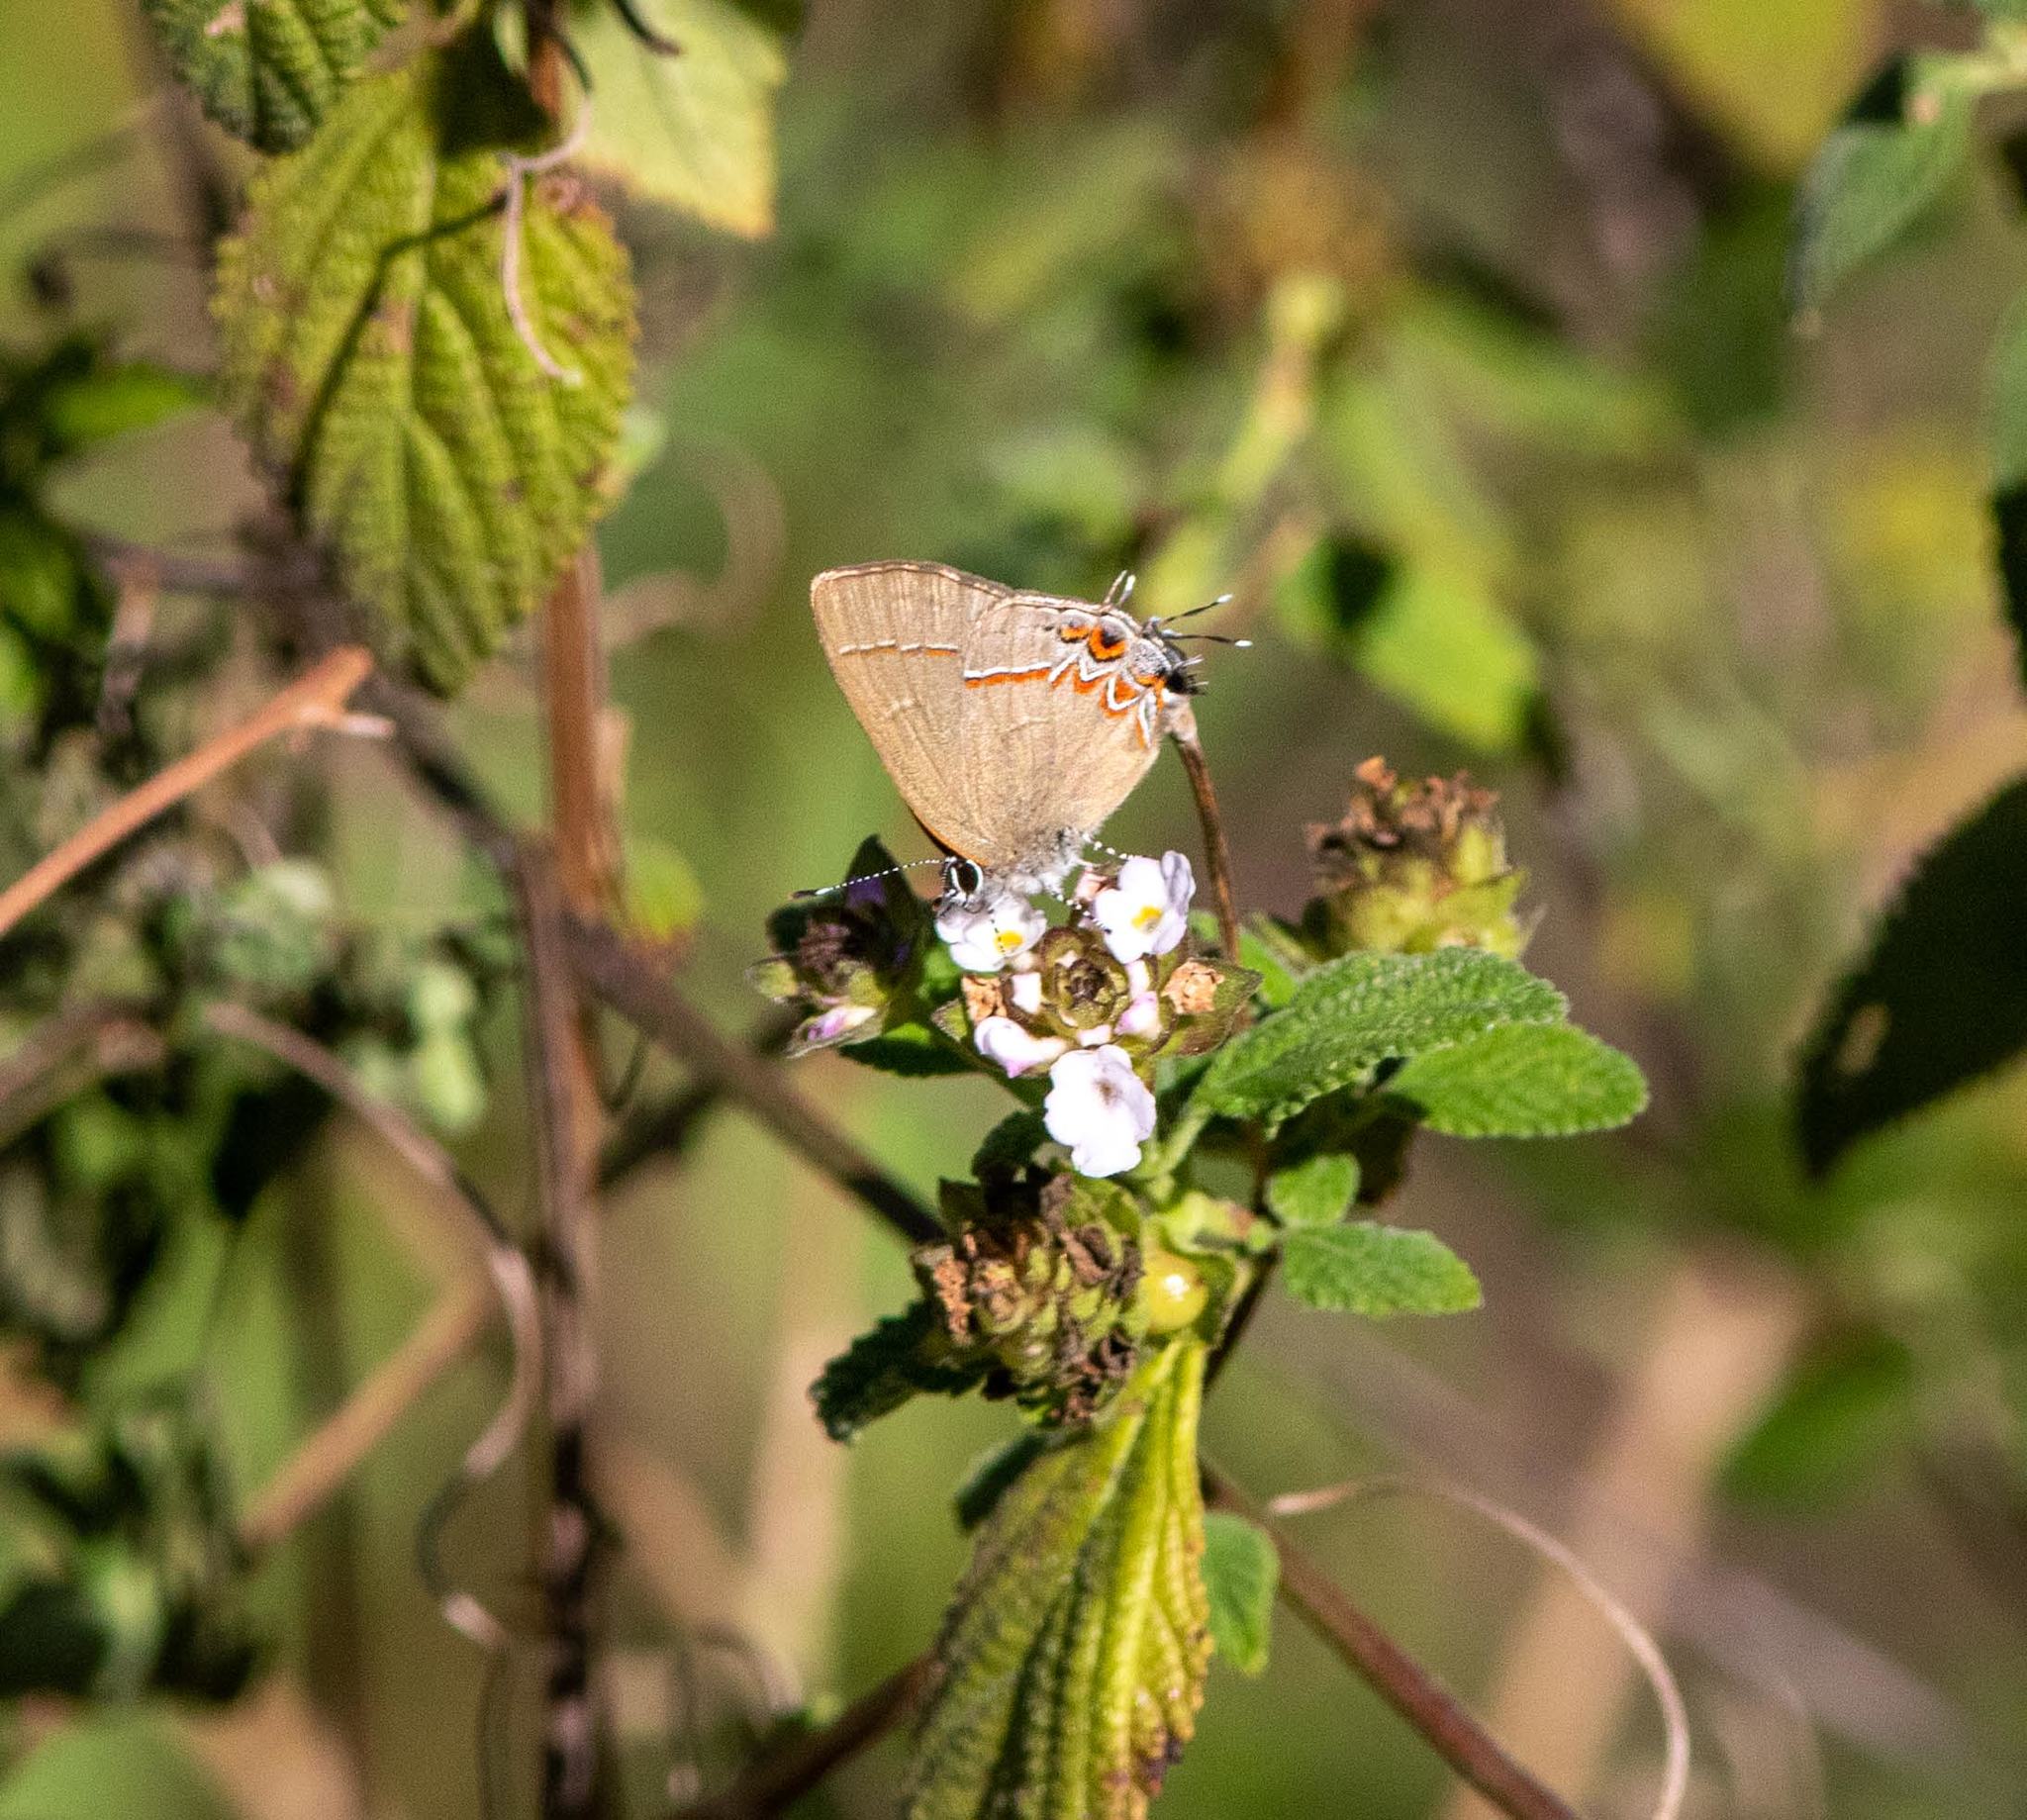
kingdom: Animalia
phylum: Arthropoda
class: Insecta
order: Lepidoptera
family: Lycaenidae
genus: Calycopis
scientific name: Calycopis isobeon
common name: Dusky-blue groundstreak
